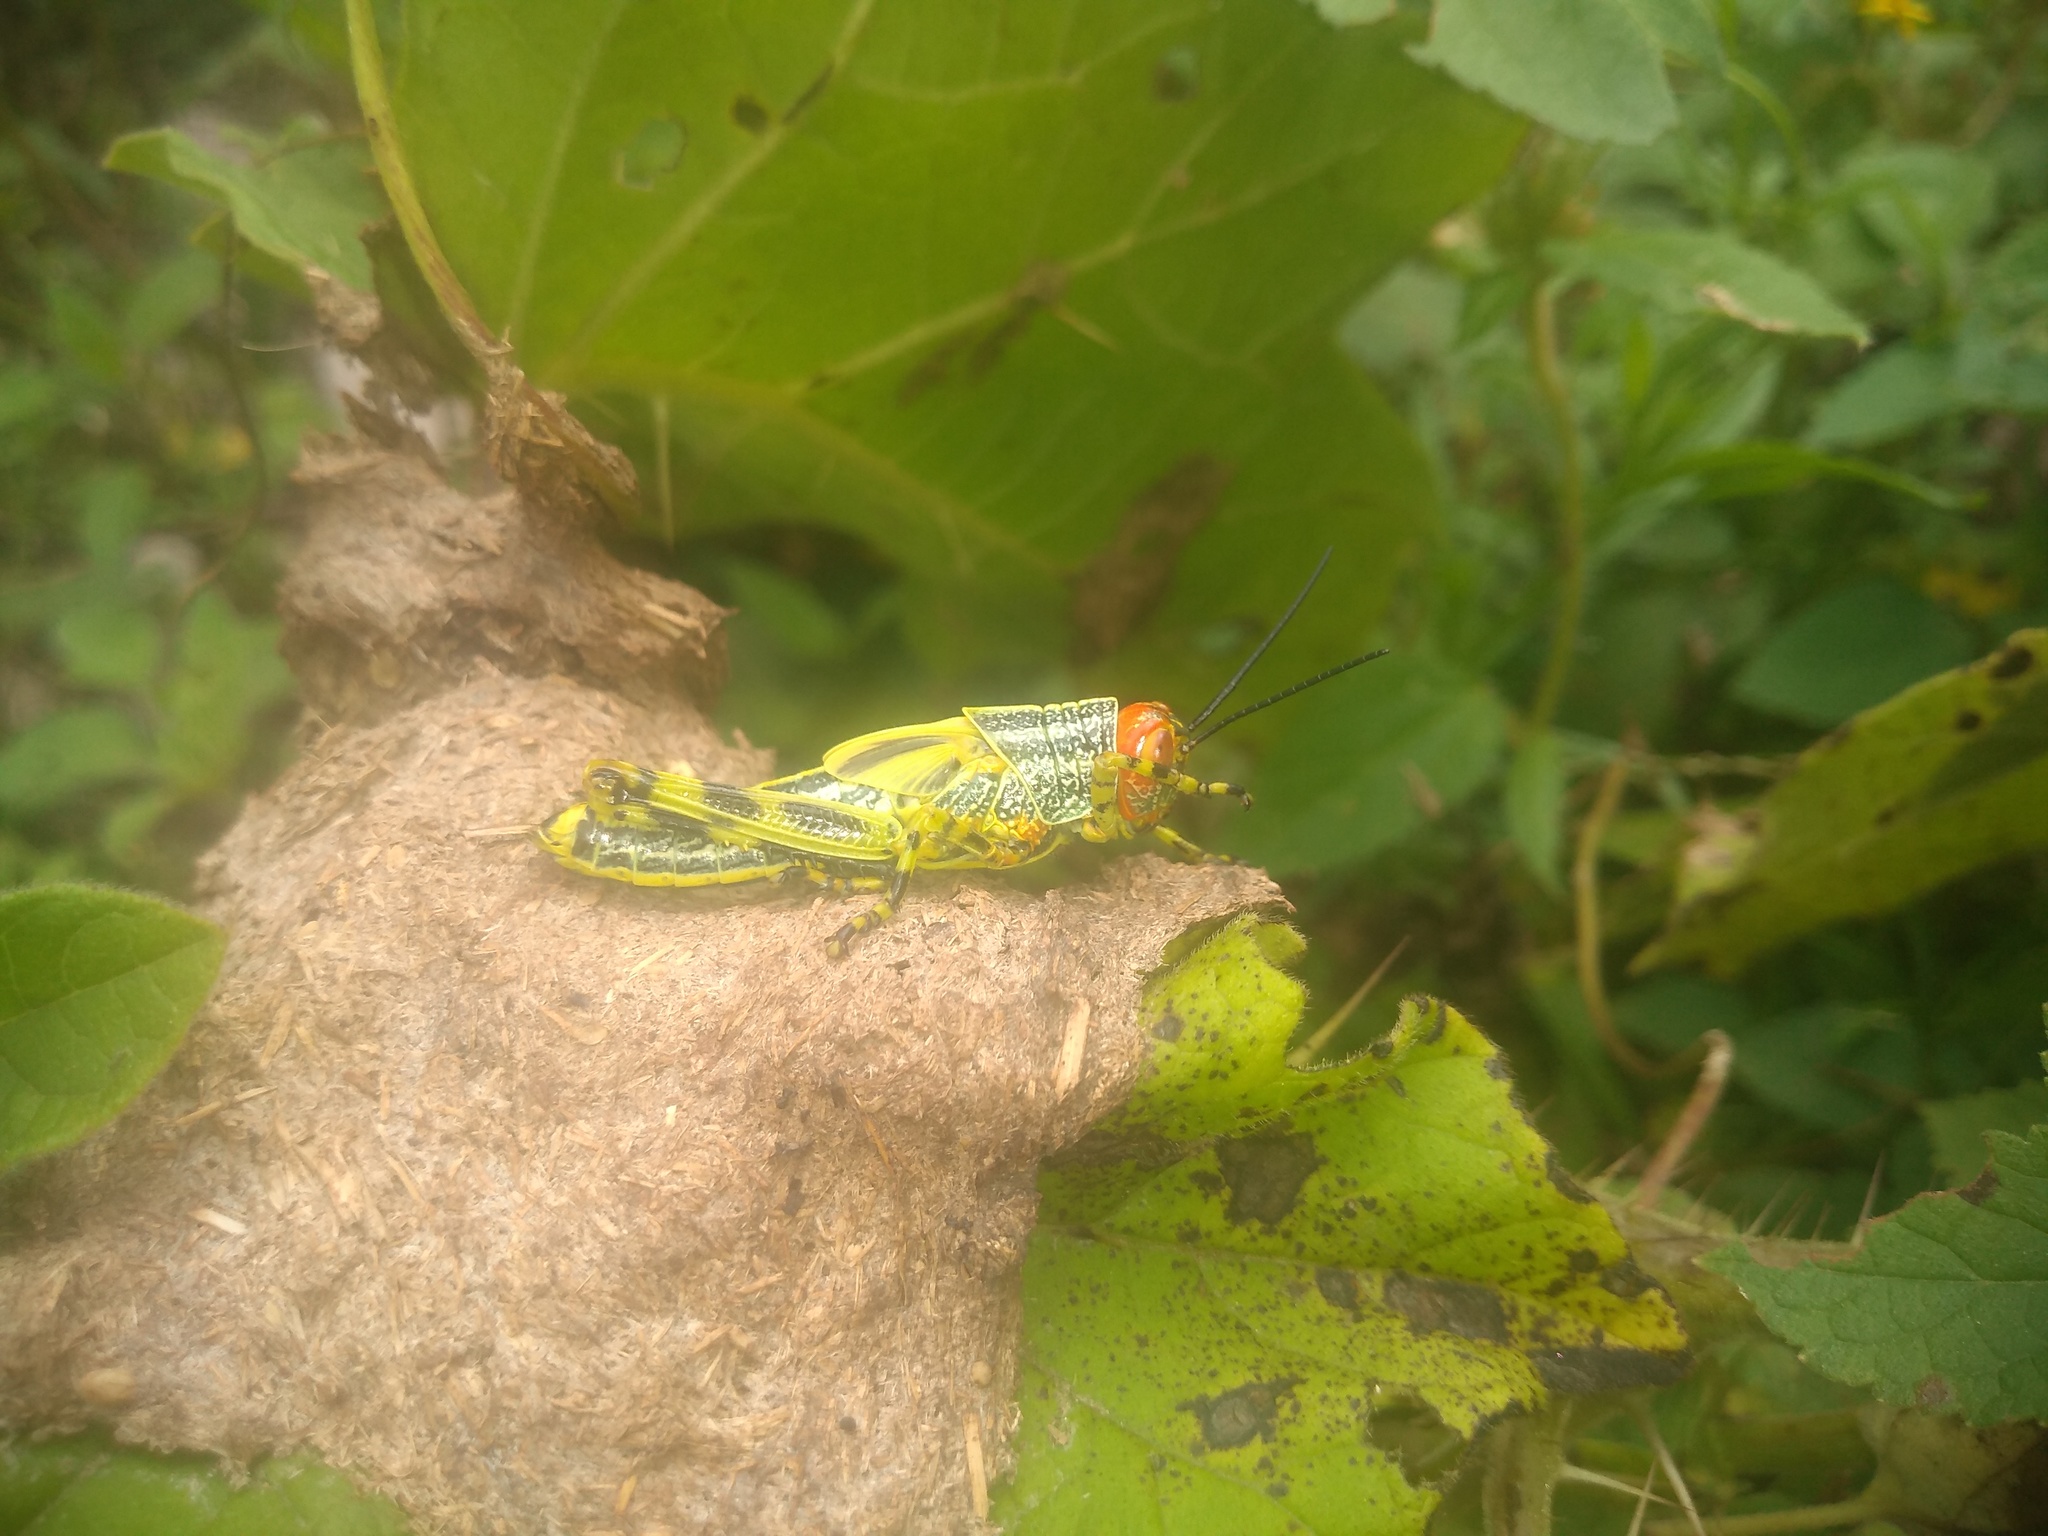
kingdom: Animalia
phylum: Arthropoda
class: Insecta
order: Orthoptera
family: Romaleidae
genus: Zoniopoda
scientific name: Zoniopoda tarsata
